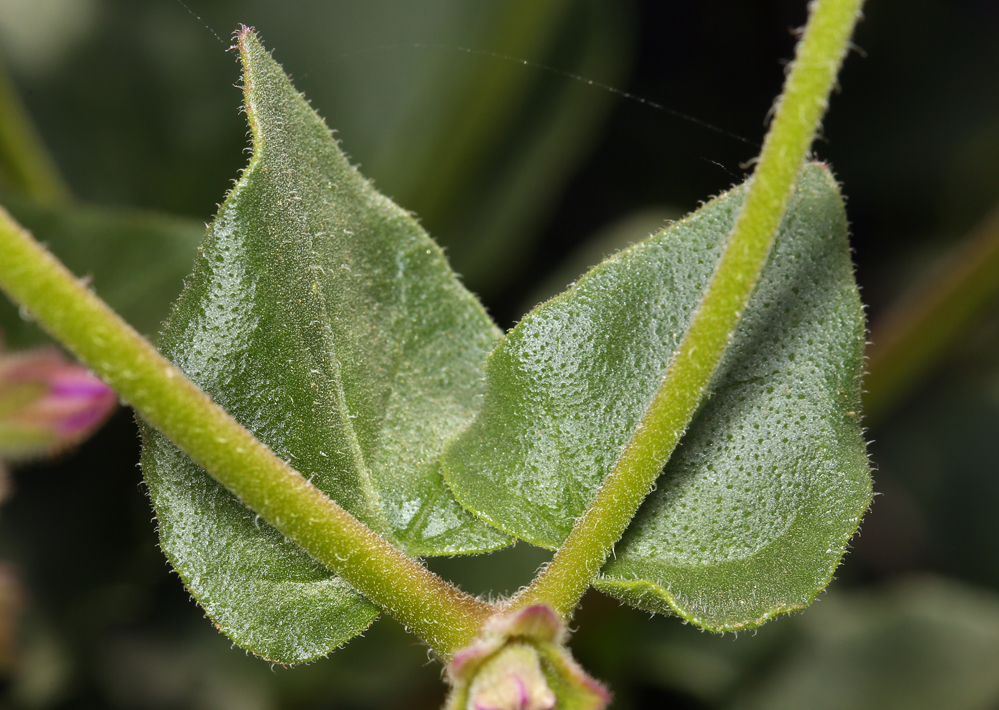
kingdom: Plantae
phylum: Tracheophyta
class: Magnoliopsida
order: Caryophyllales
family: Nyctaginaceae
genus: Mirabilis
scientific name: Mirabilis laevis
